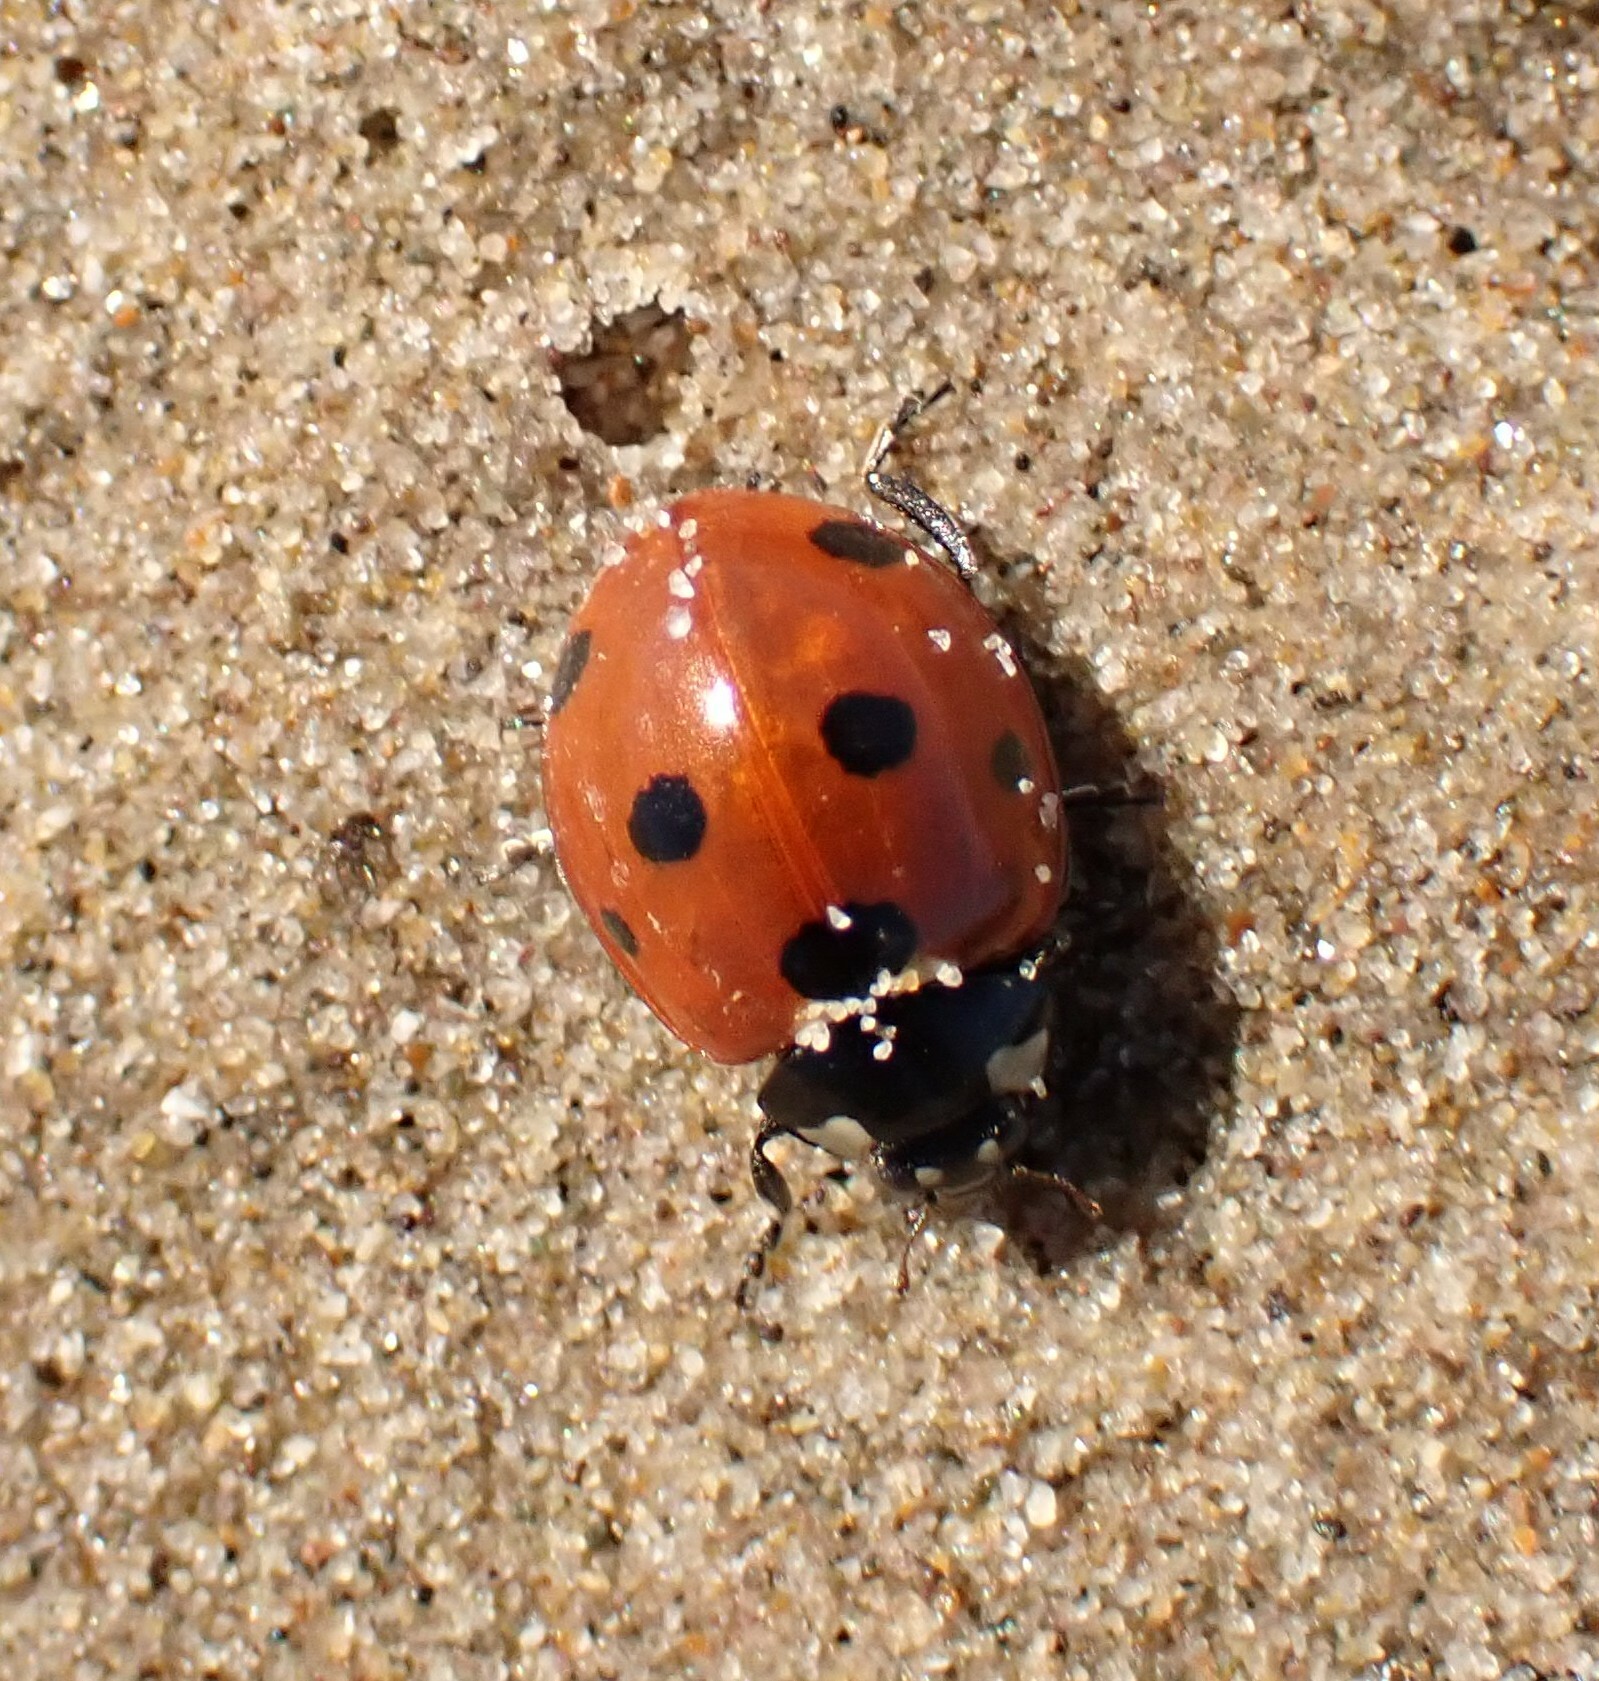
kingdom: Animalia
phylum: Arthropoda
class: Insecta
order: Coleoptera
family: Coccinellidae
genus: Coccinella
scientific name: Coccinella septempunctata
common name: Sevenspotted lady beetle
